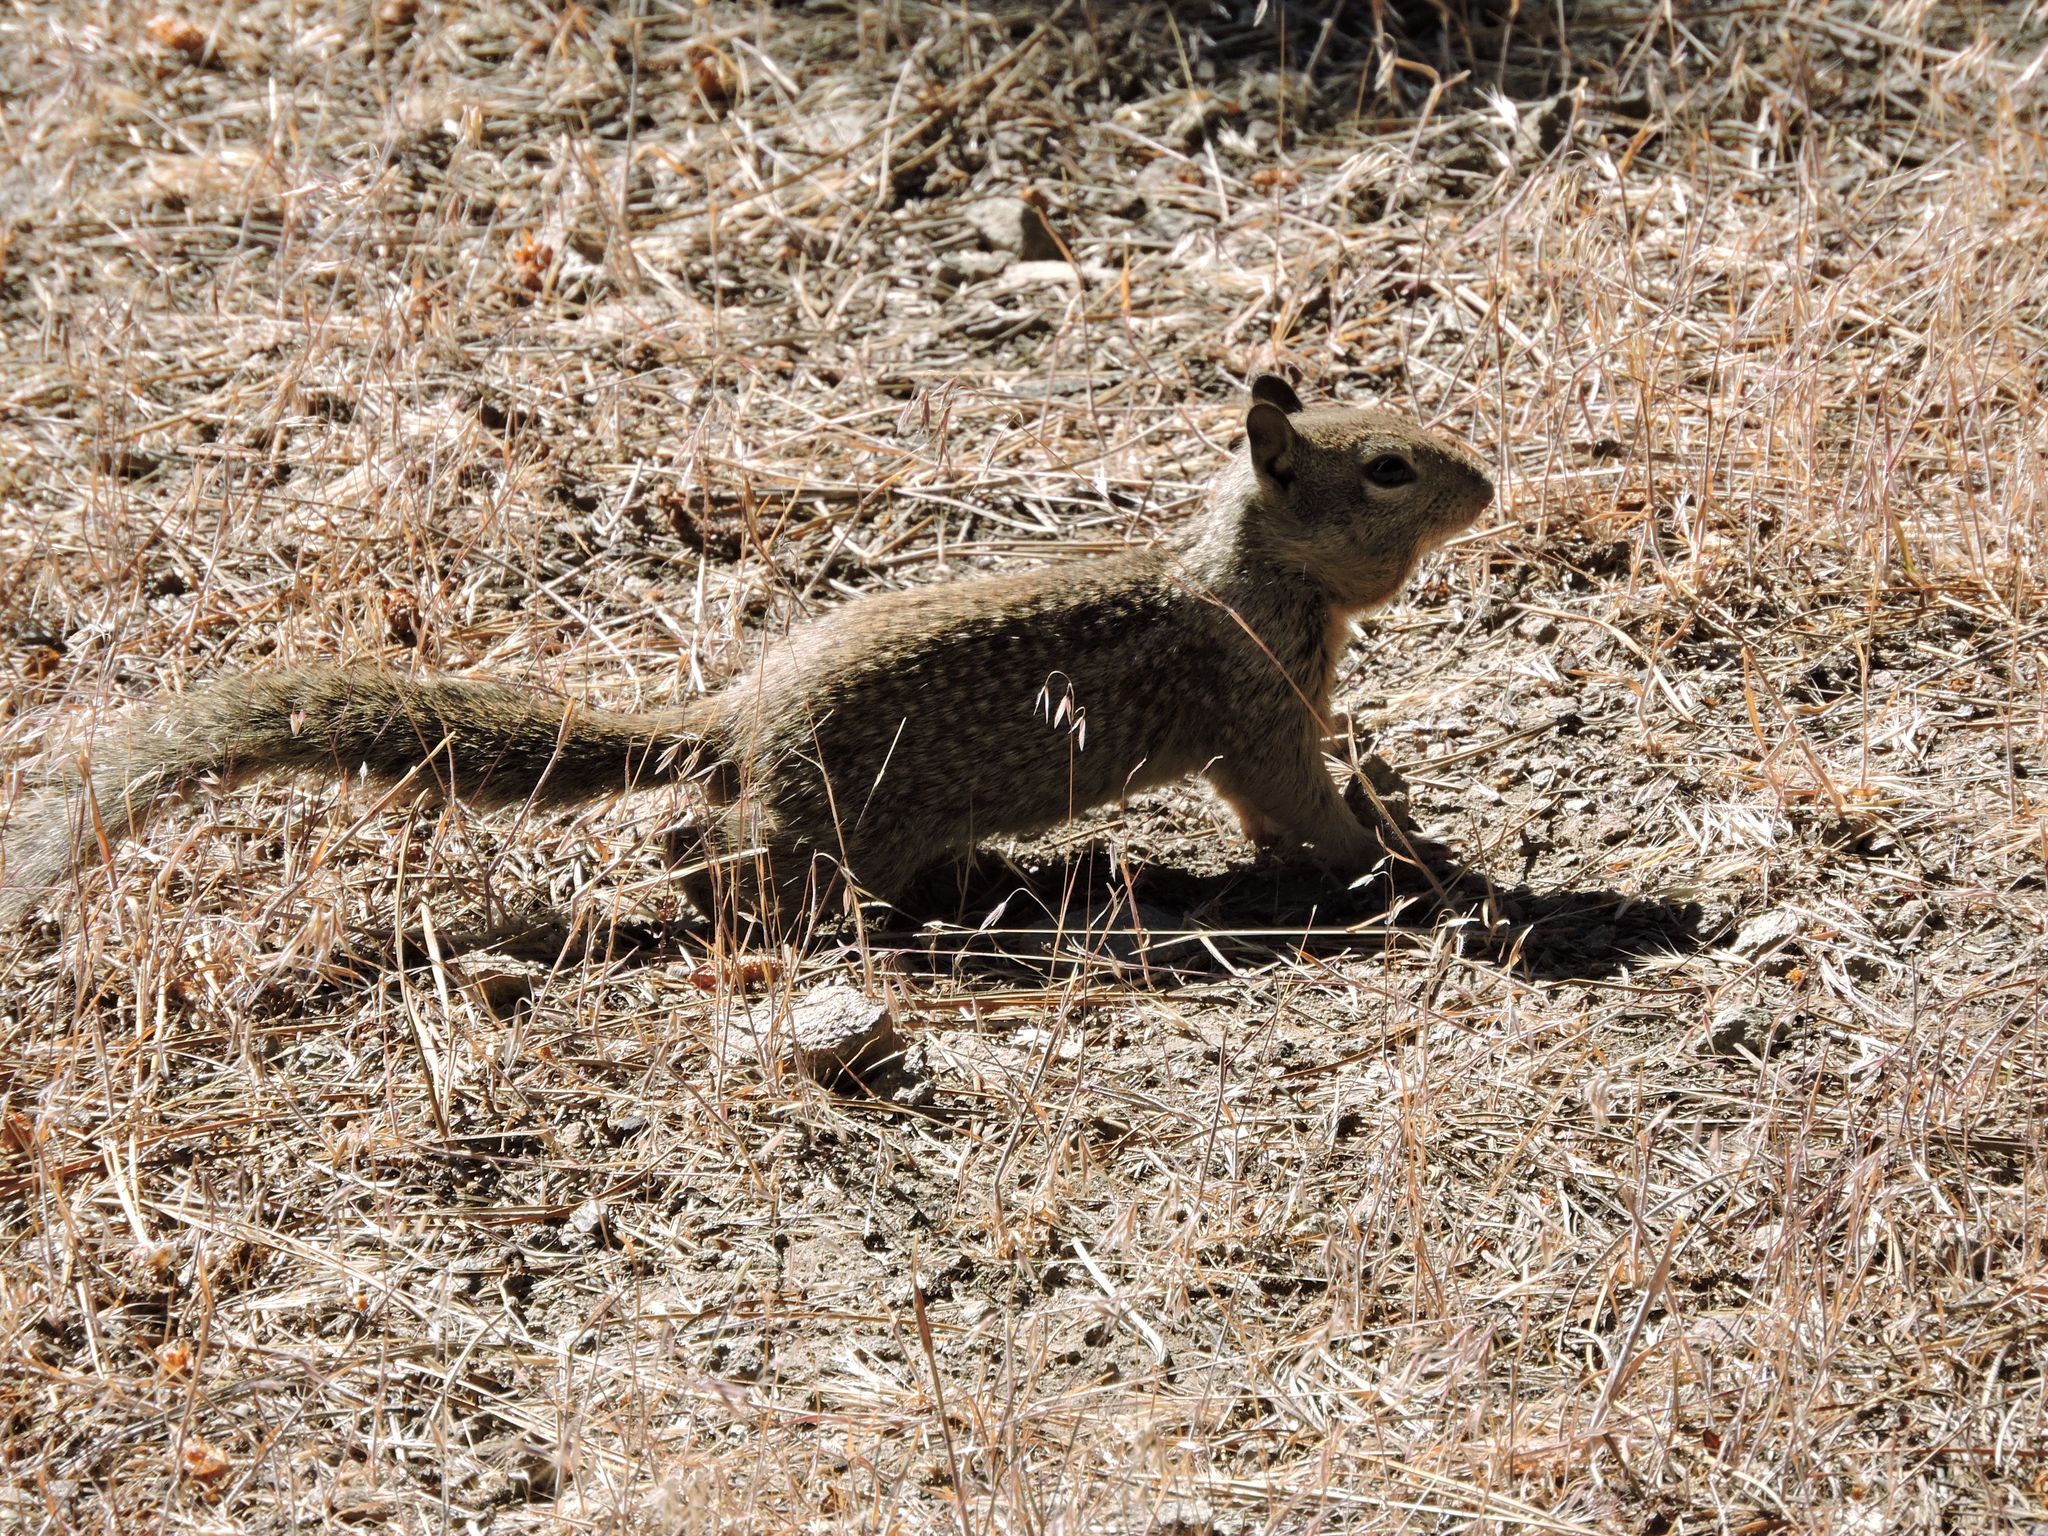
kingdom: Animalia
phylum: Chordata
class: Mammalia
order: Rodentia
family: Sciuridae
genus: Otospermophilus
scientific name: Otospermophilus beecheyi
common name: California ground squirrel
